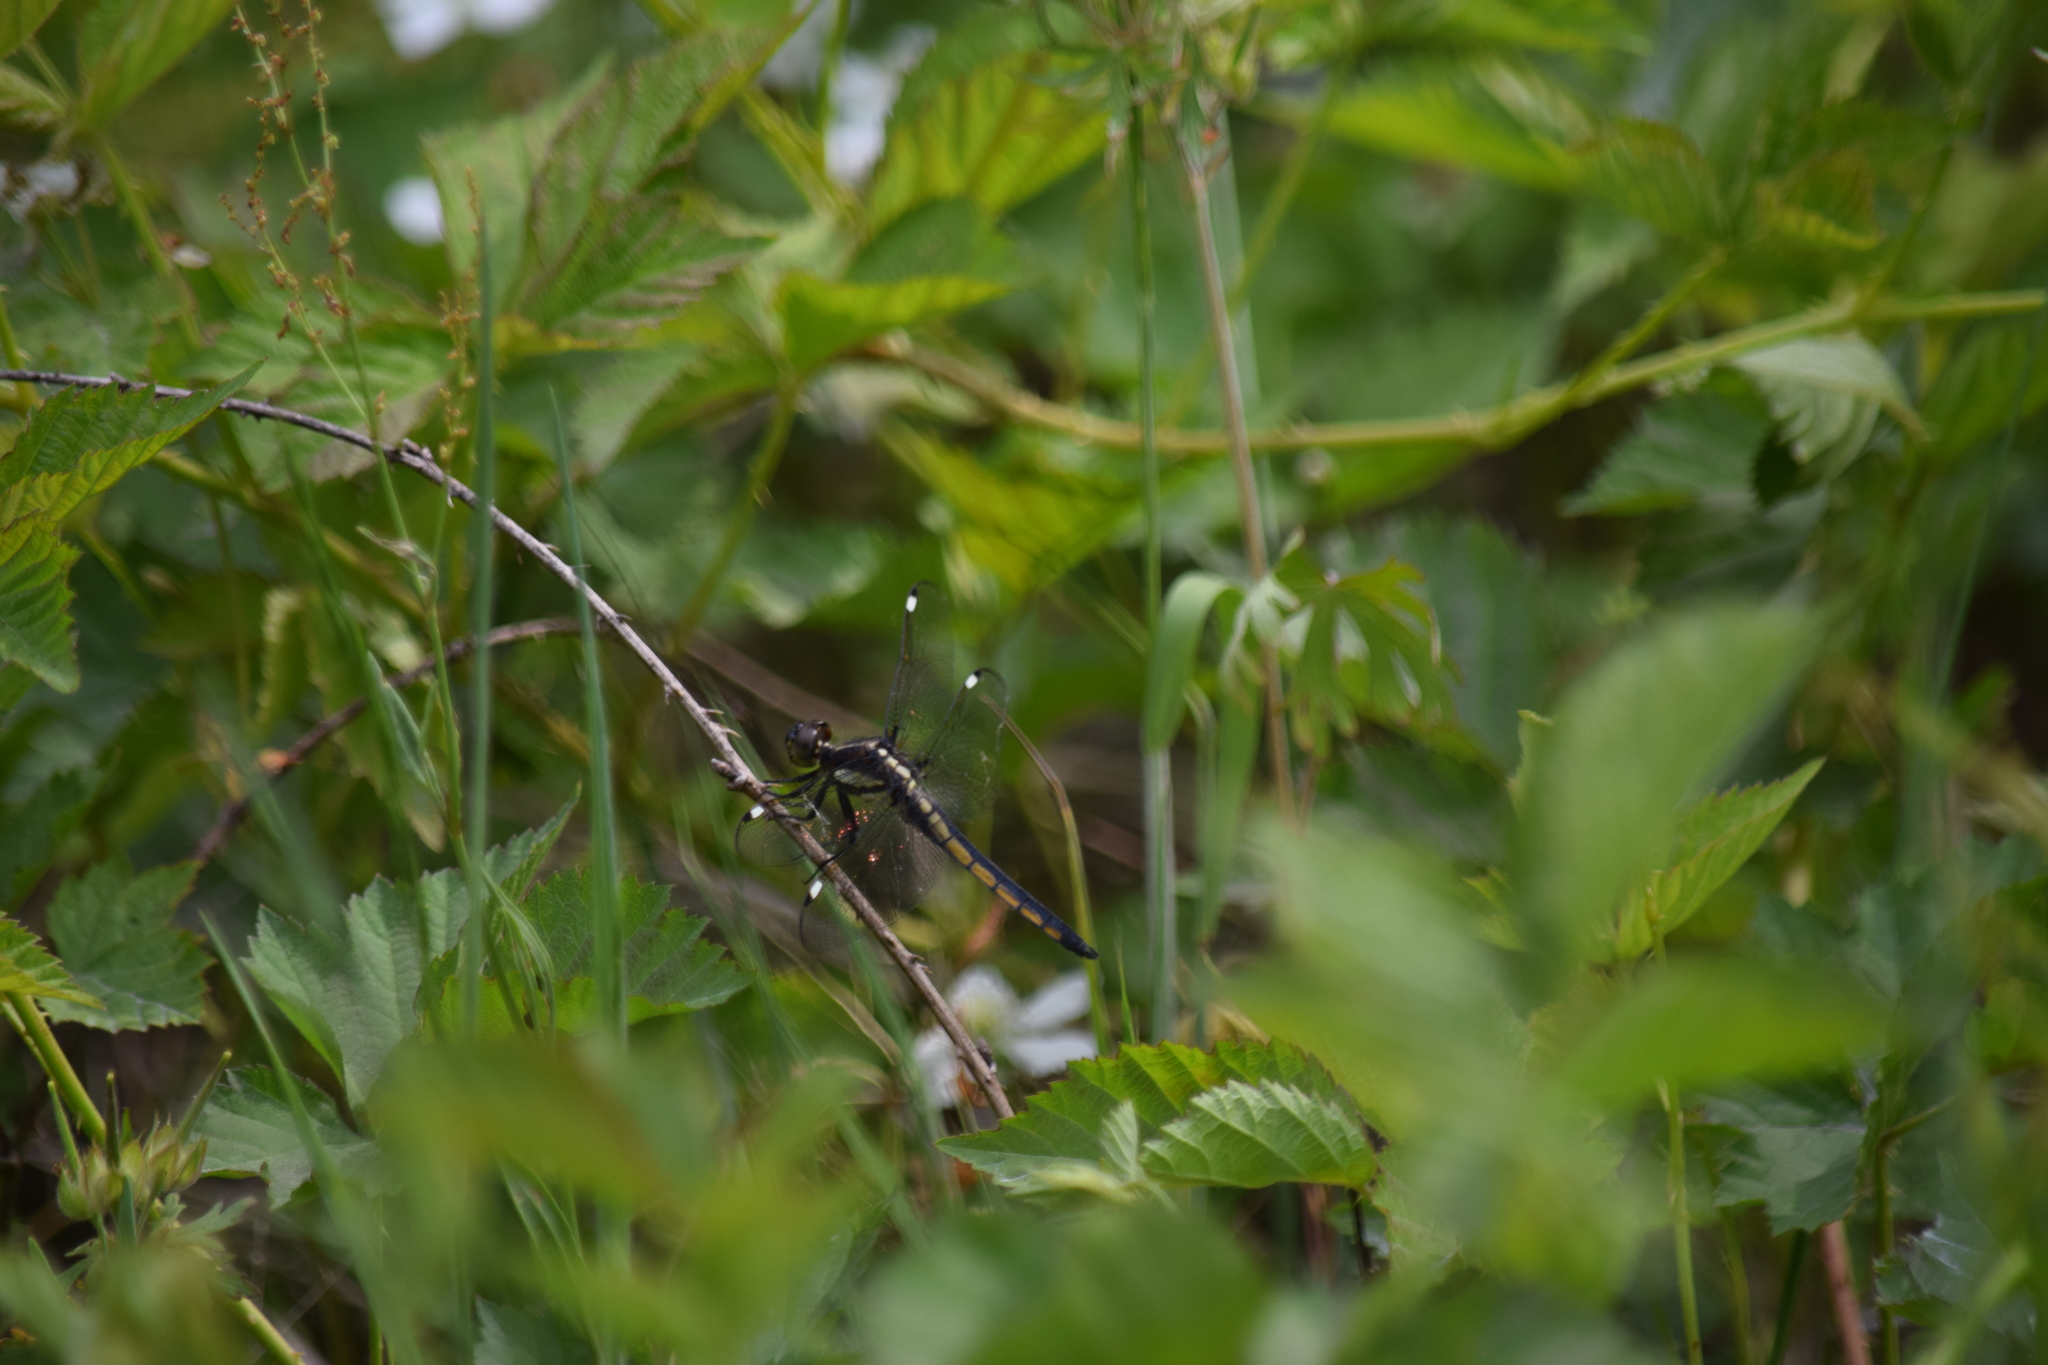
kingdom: Animalia
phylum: Arthropoda
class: Insecta
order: Odonata
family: Libellulidae
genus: Libellula
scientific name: Libellula cyanea
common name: Spangled skimmer
